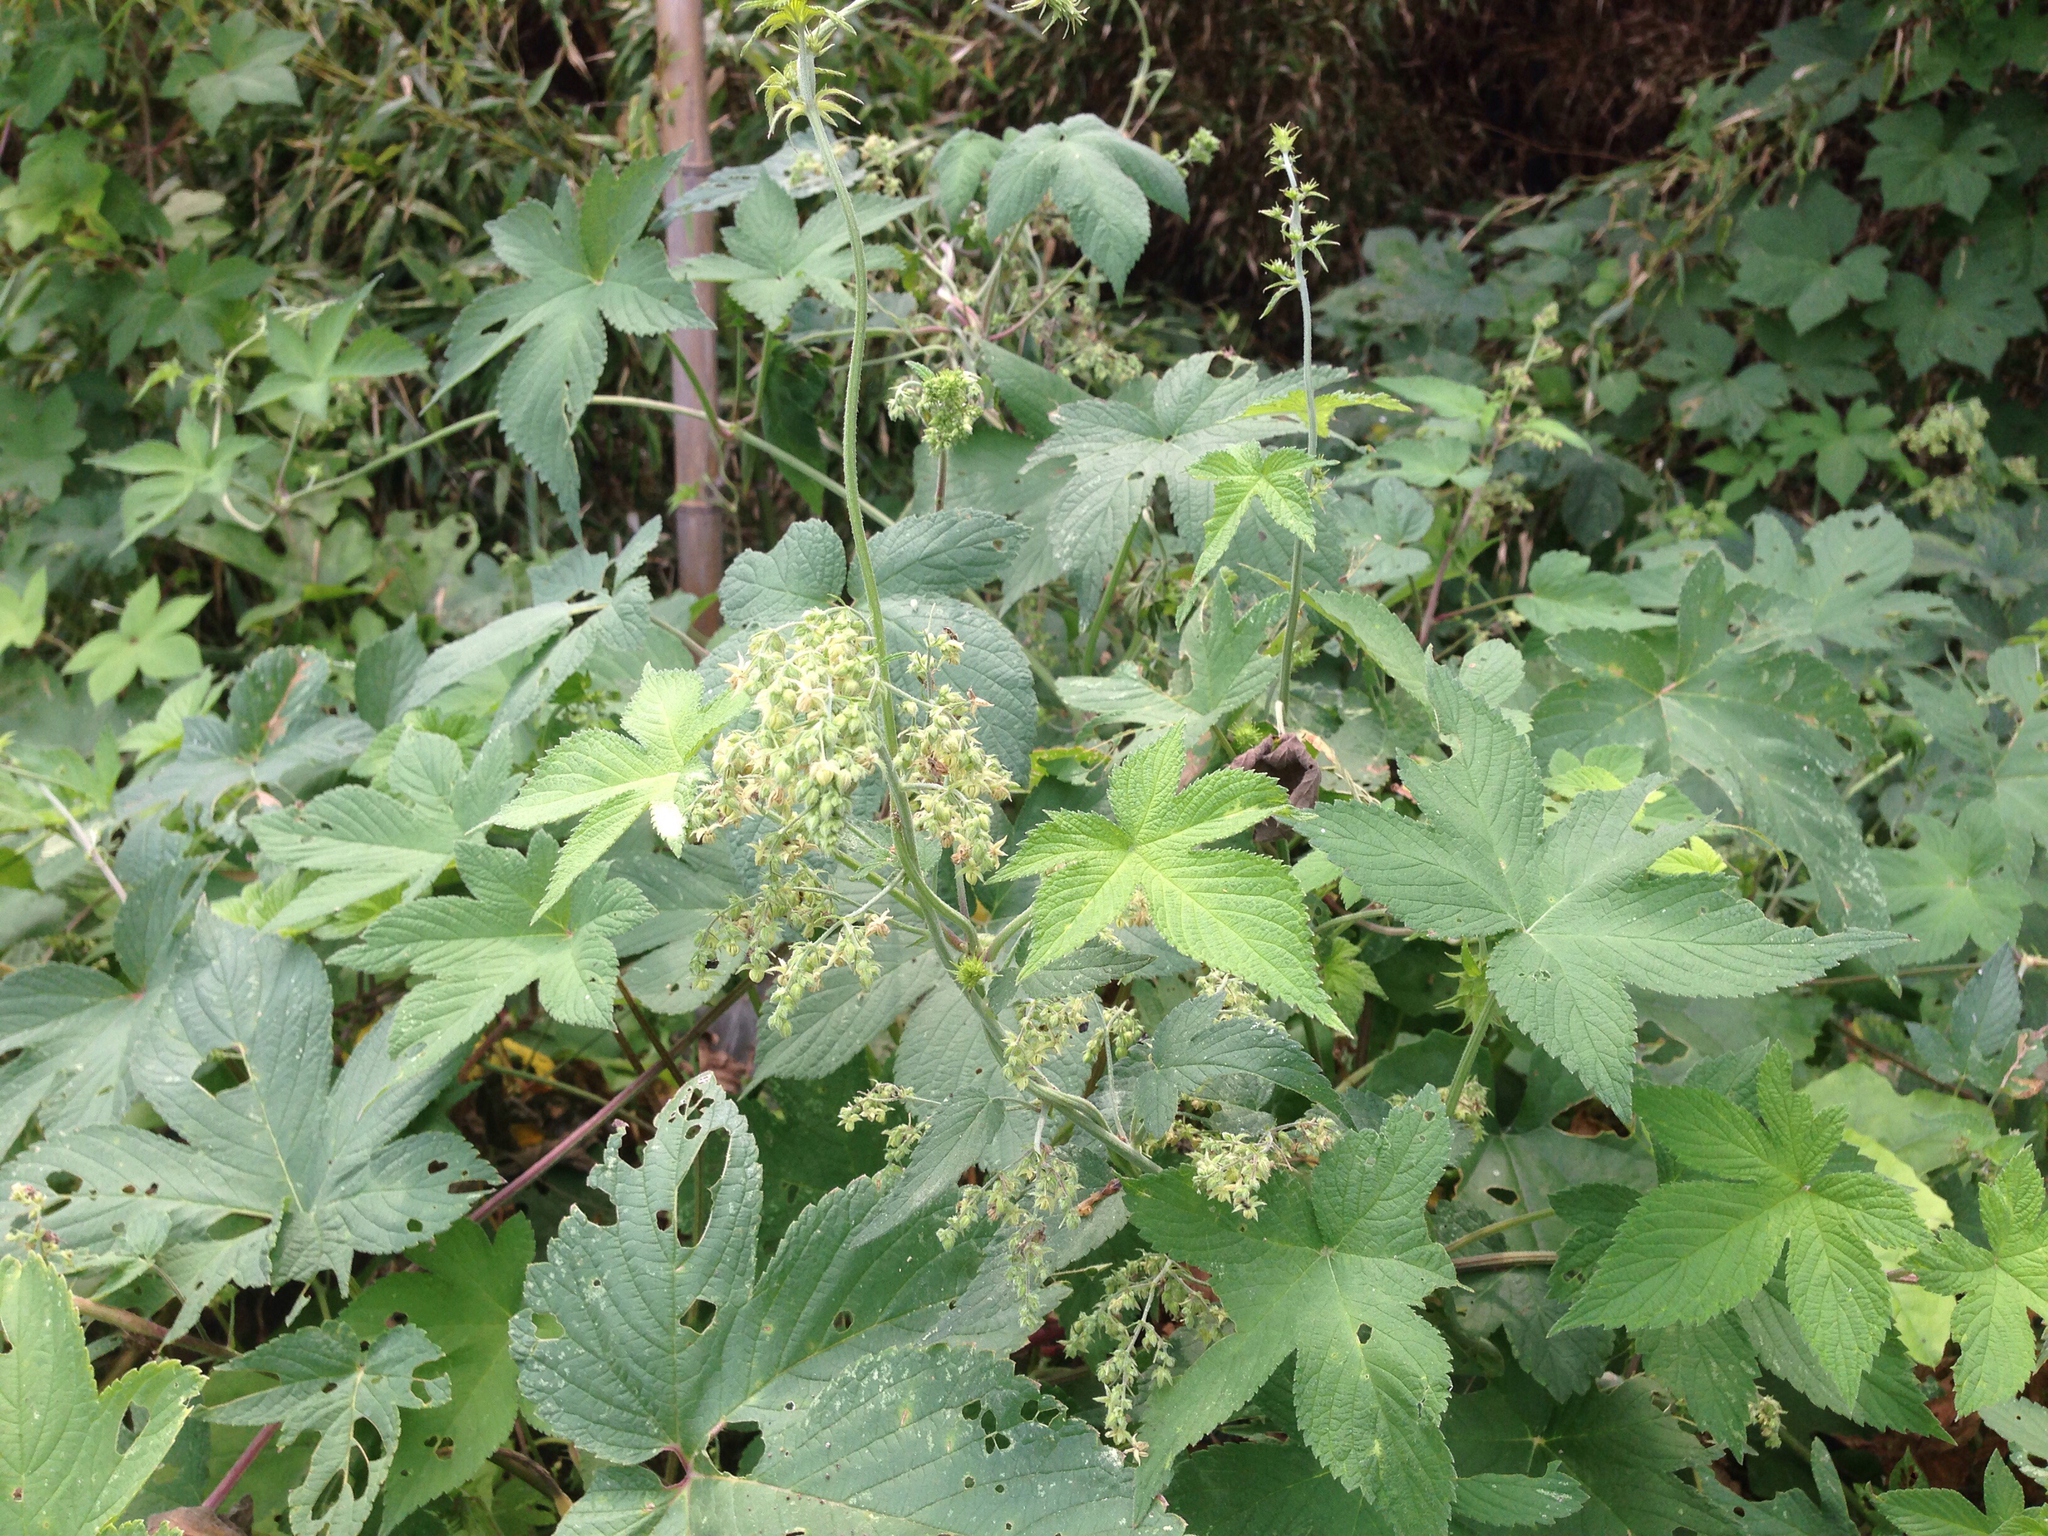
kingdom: Plantae
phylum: Tracheophyta
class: Magnoliopsida
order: Rosales
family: Cannabaceae
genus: Humulus
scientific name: Humulus scandens
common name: Japanese hop
